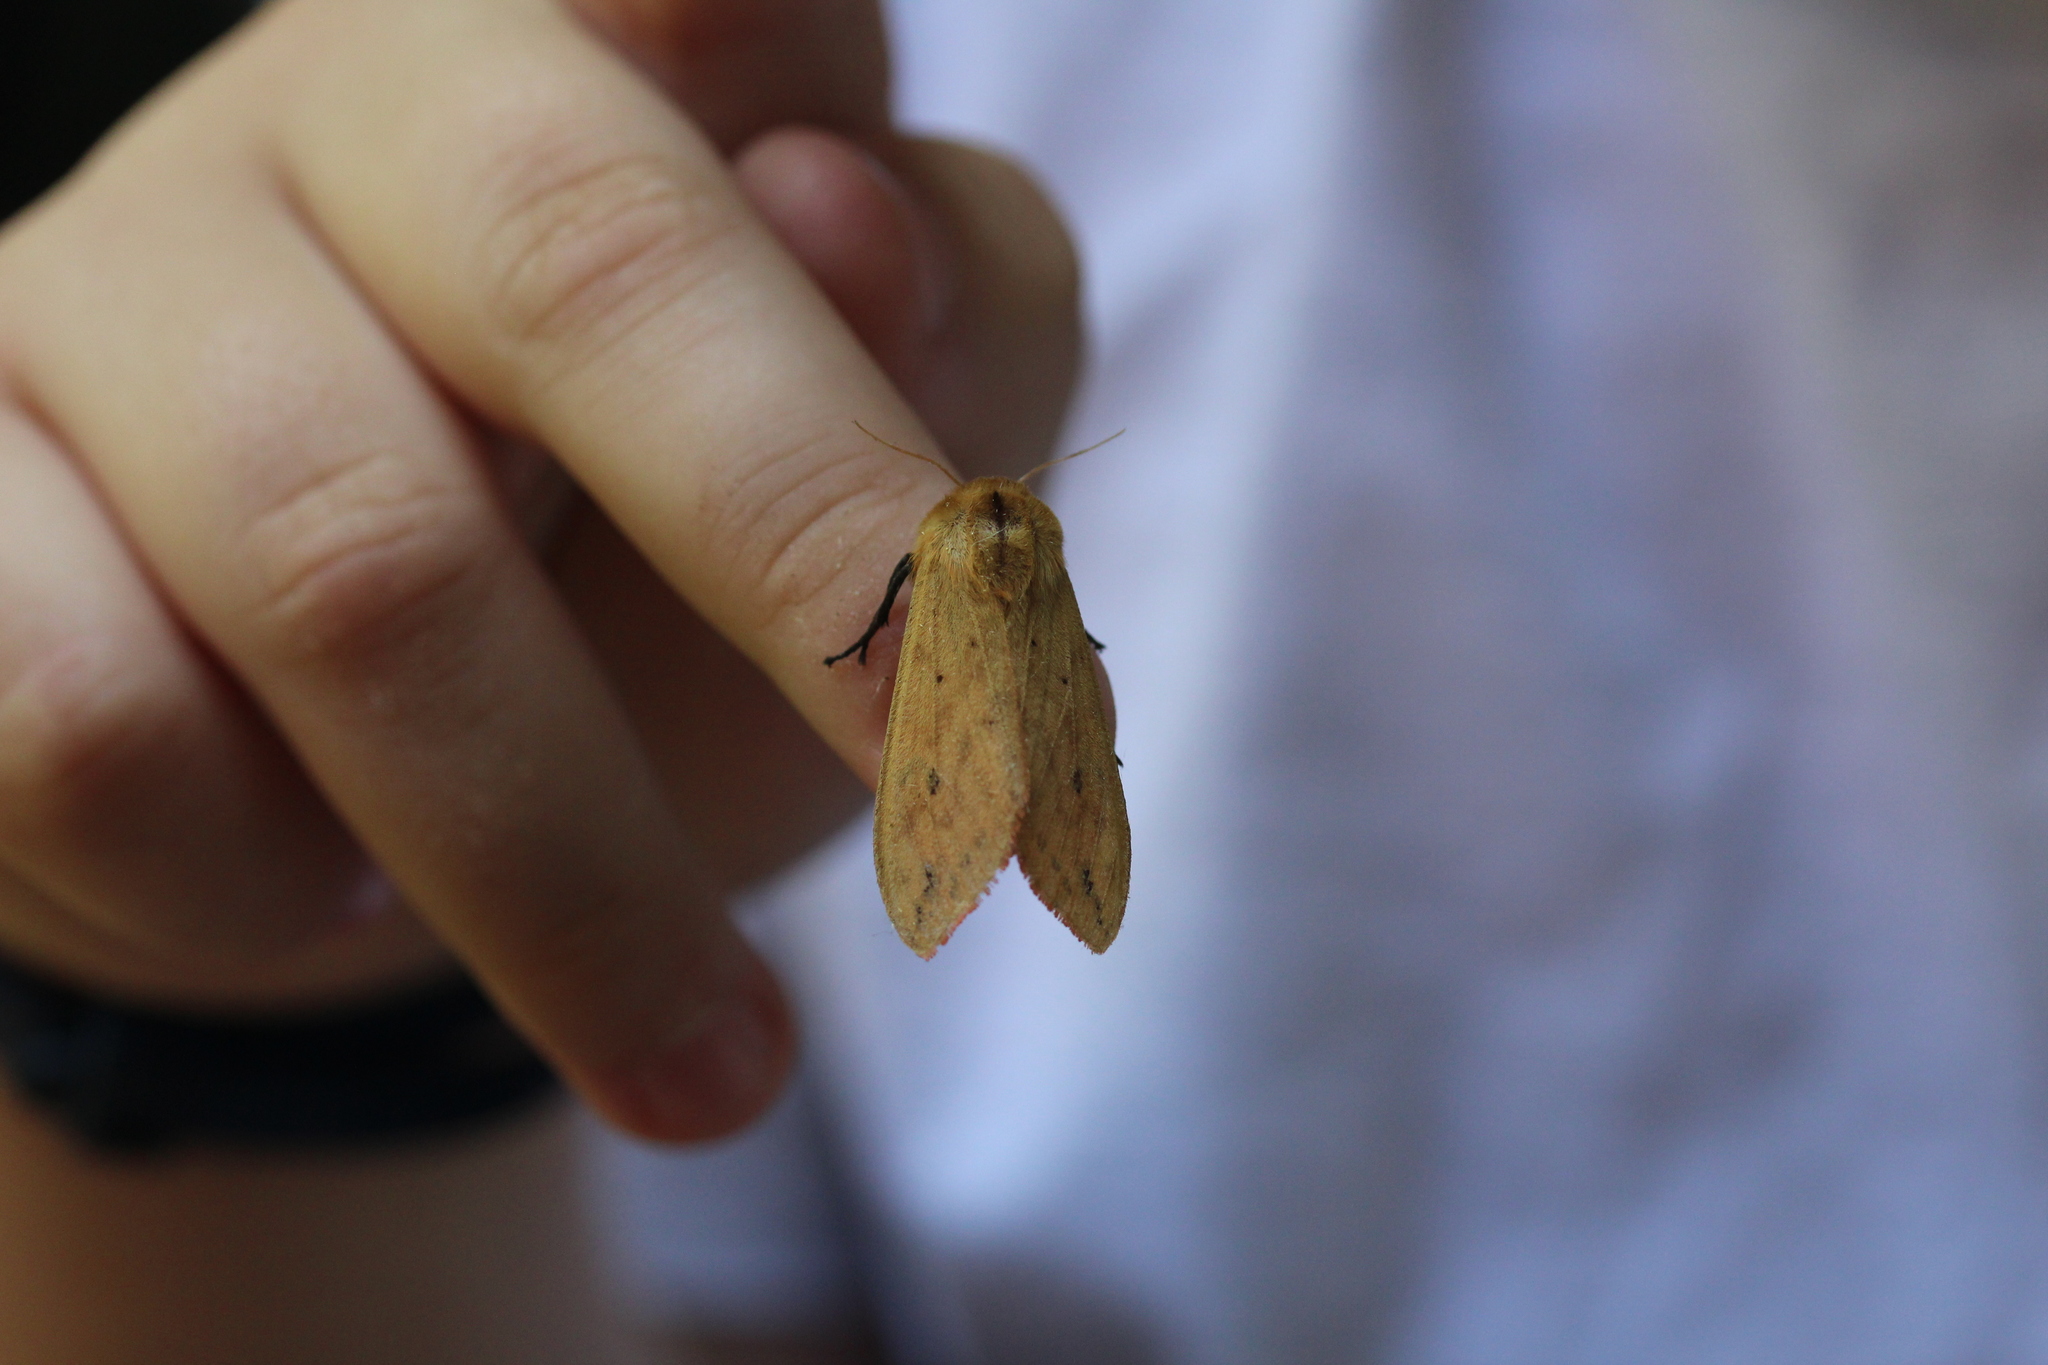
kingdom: Animalia
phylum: Arthropoda
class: Insecta
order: Lepidoptera
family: Erebidae
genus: Pyrrharctia
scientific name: Pyrrharctia isabella
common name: Isabella tiger moth
